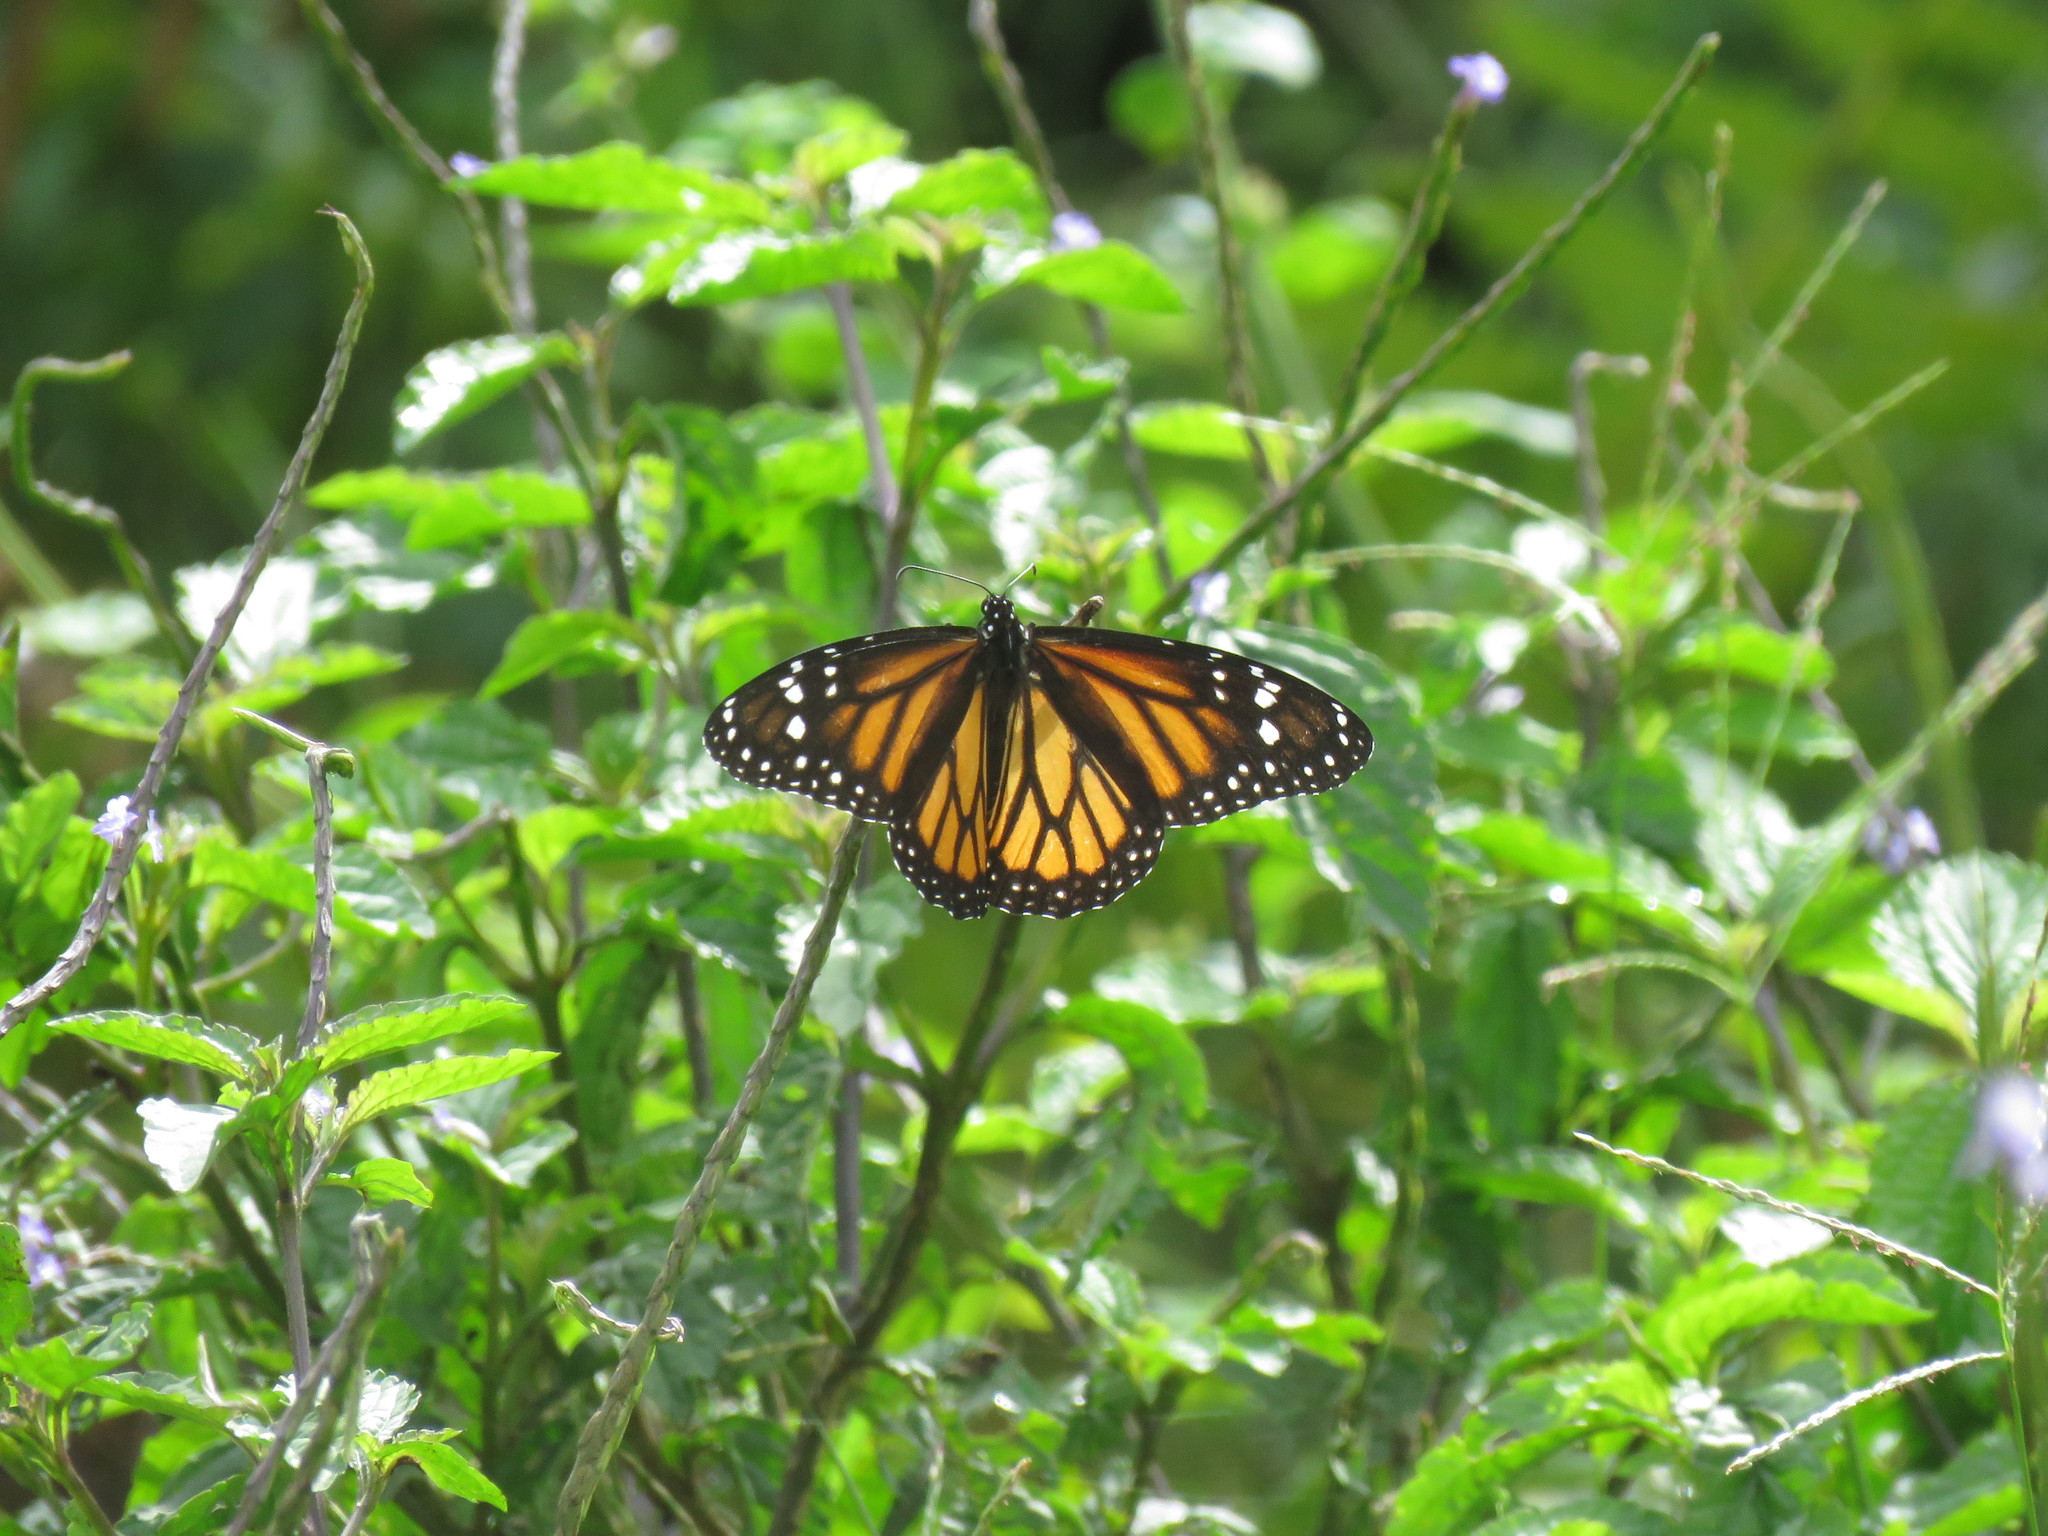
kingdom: Animalia
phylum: Arthropoda
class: Insecta
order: Lepidoptera
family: Nymphalidae
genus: Danaus
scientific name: Danaus plexippus
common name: Monarch
